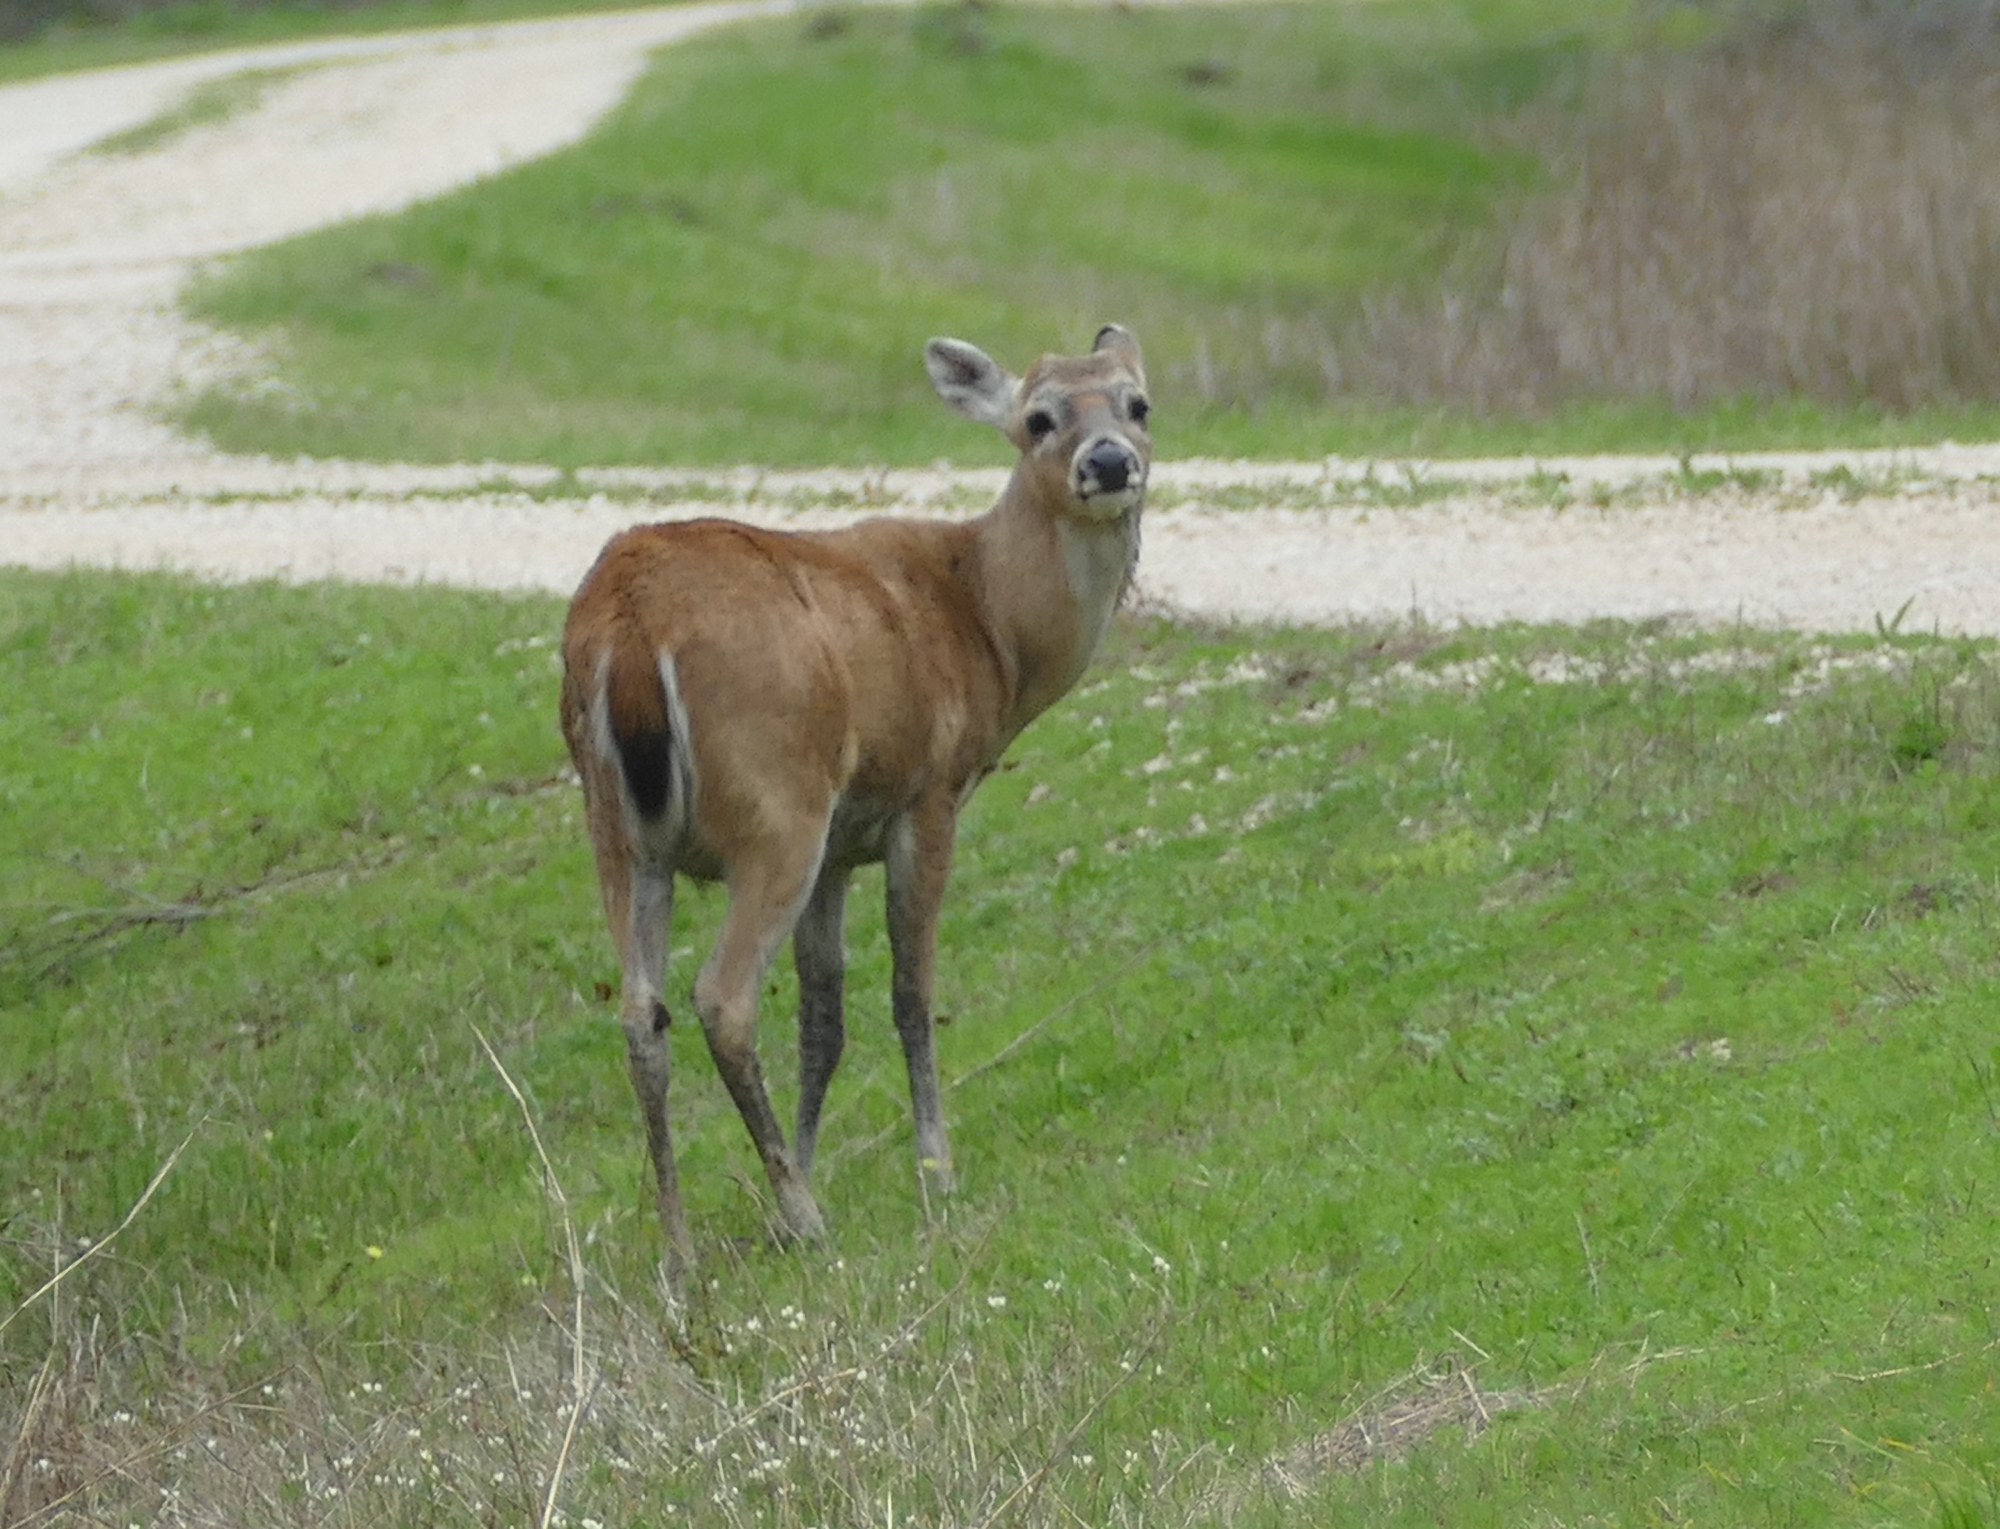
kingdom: Animalia
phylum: Chordata
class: Mammalia
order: Artiodactyla
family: Cervidae
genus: Odocoileus
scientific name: Odocoileus virginianus
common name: White-tailed deer
